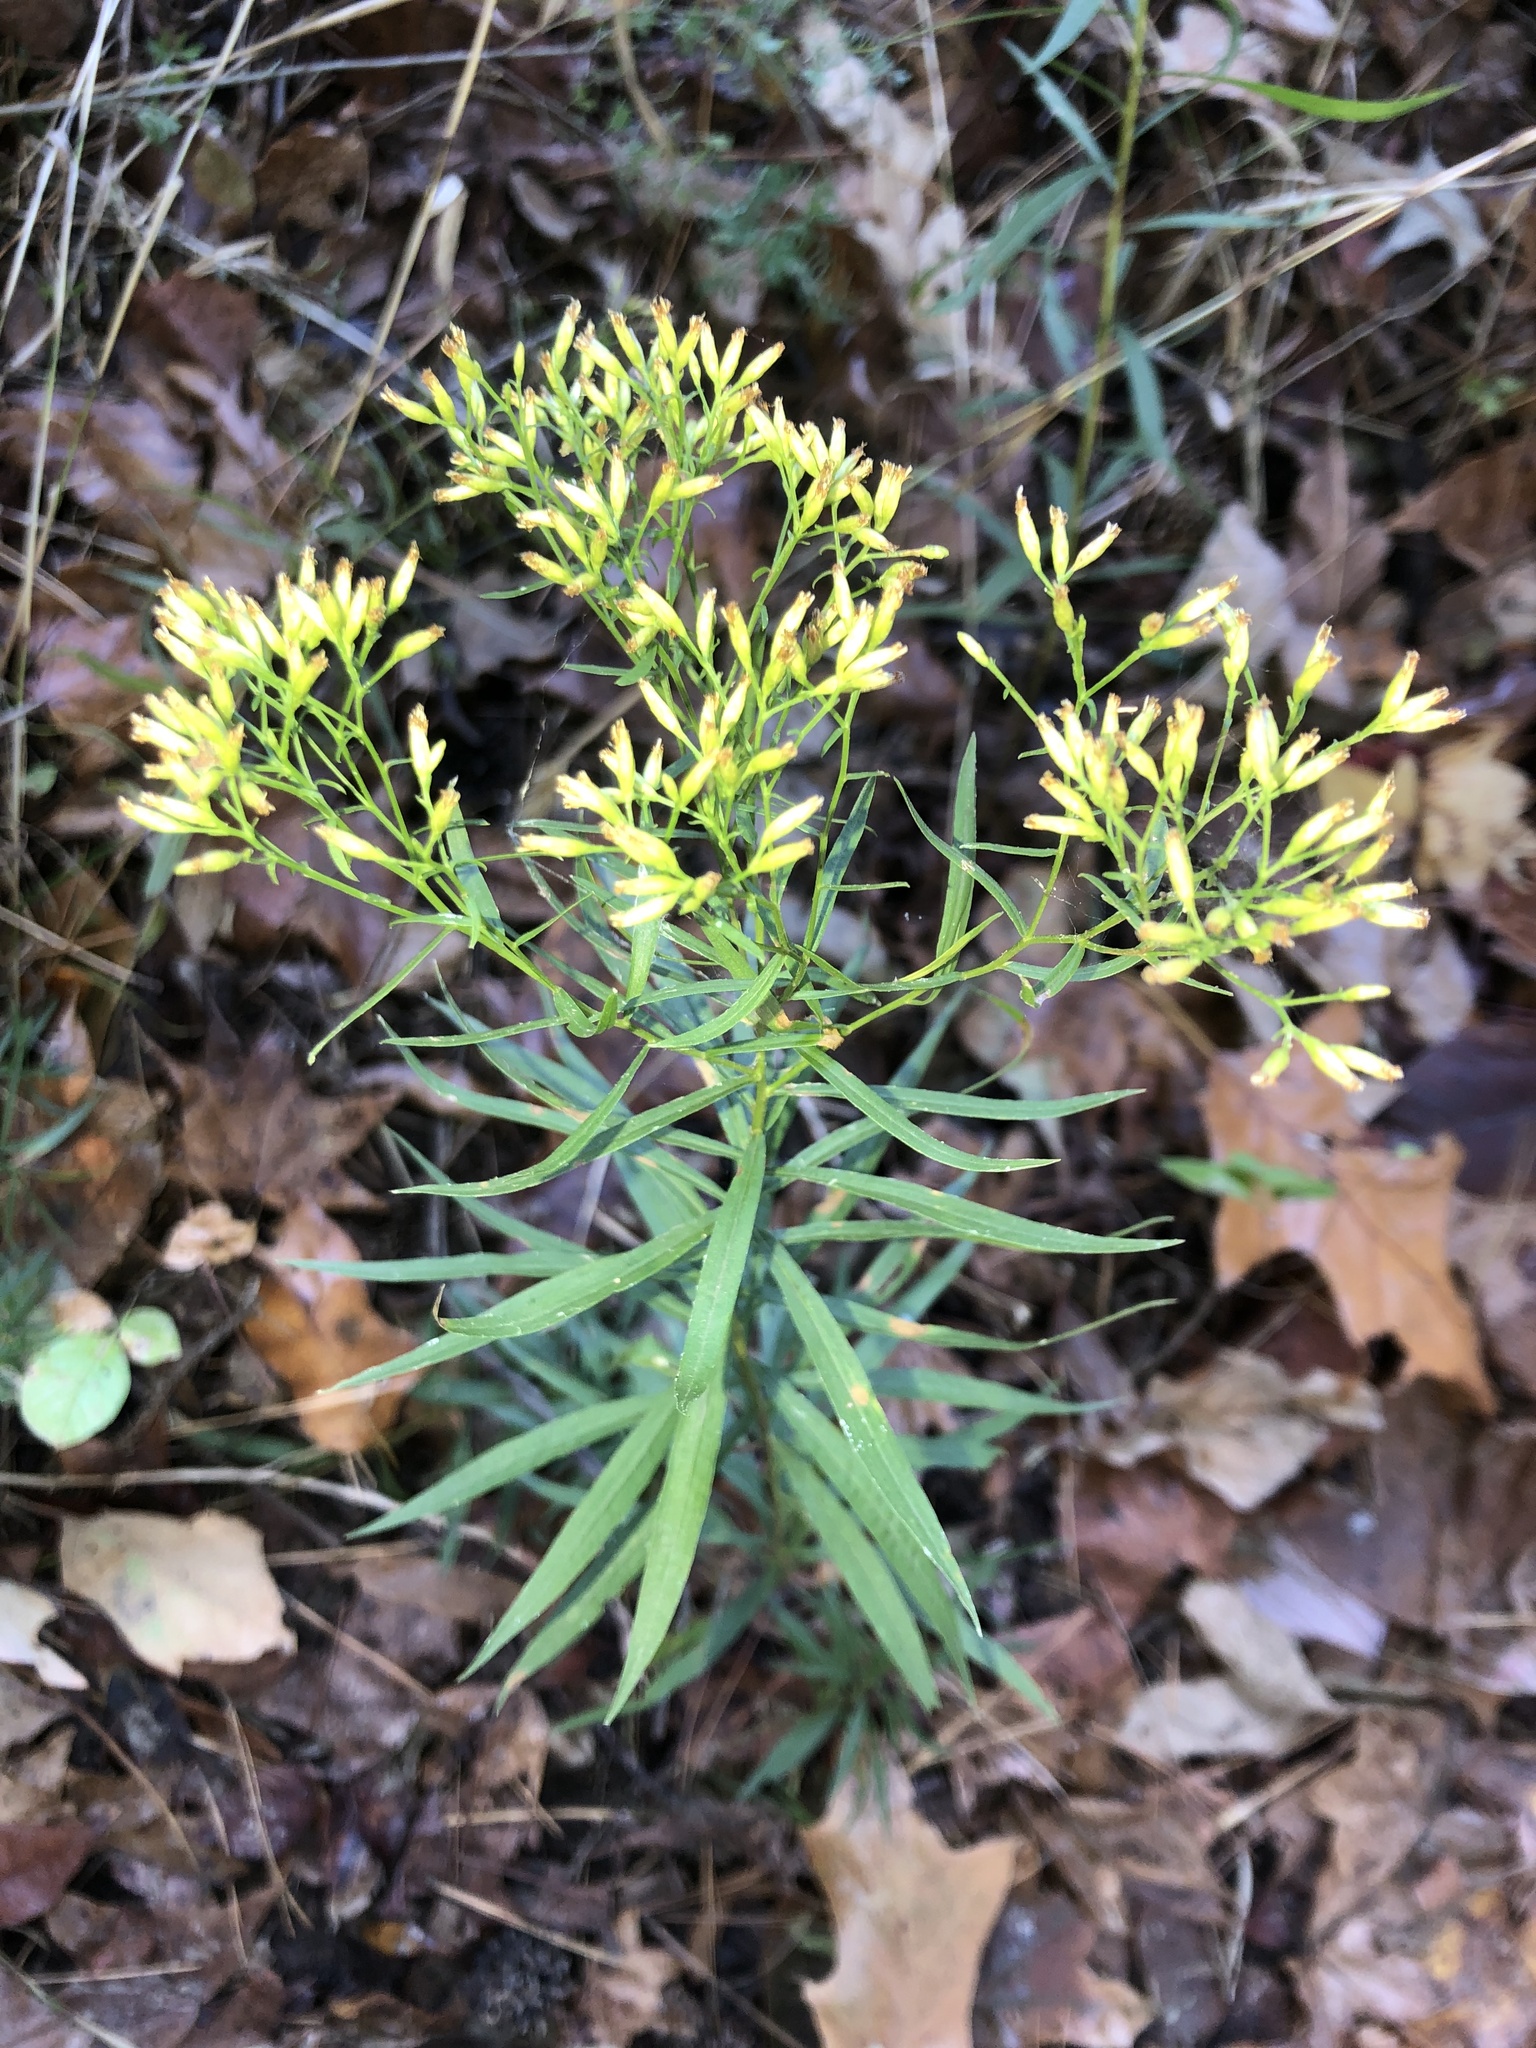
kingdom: Plantae
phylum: Tracheophyta
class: Magnoliopsida
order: Asterales
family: Asteraceae
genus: Euthamia
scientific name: Euthamia leptocephala
